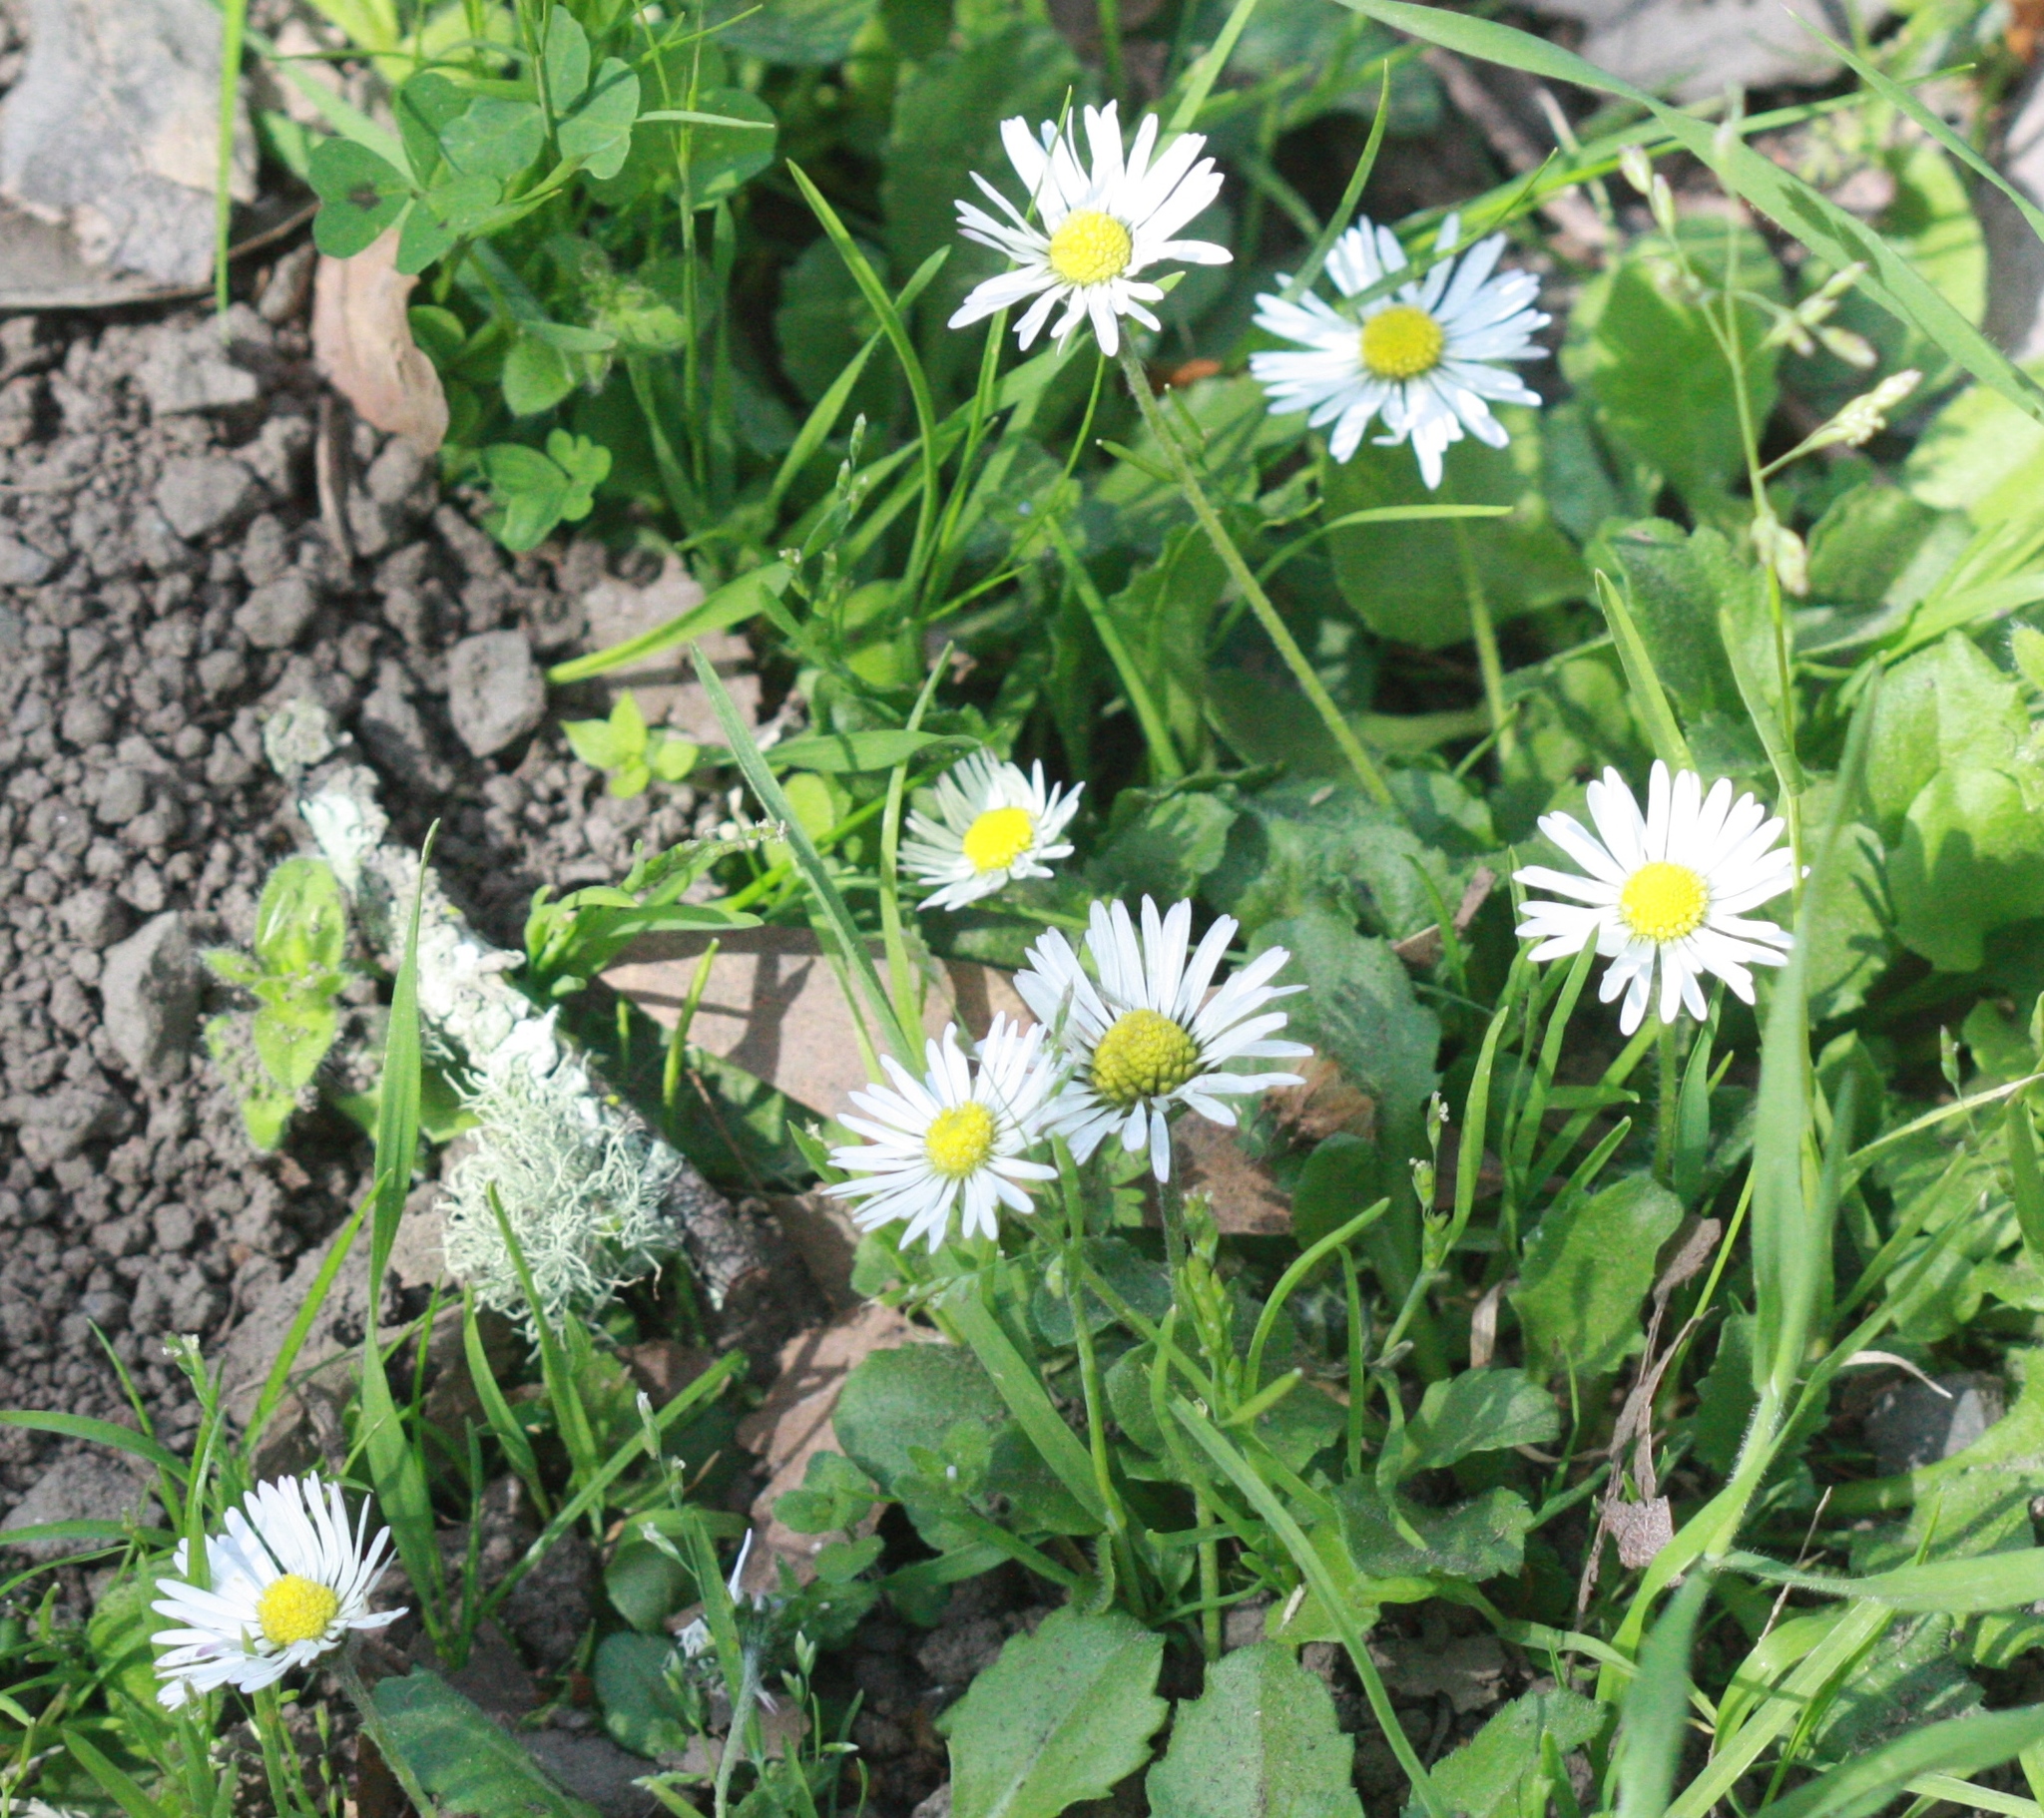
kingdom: Plantae
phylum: Tracheophyta
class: Magnoliopsida
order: Asterales
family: Asteraceae
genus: Bellis
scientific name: Bellis perennis
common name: Lawndaisy
